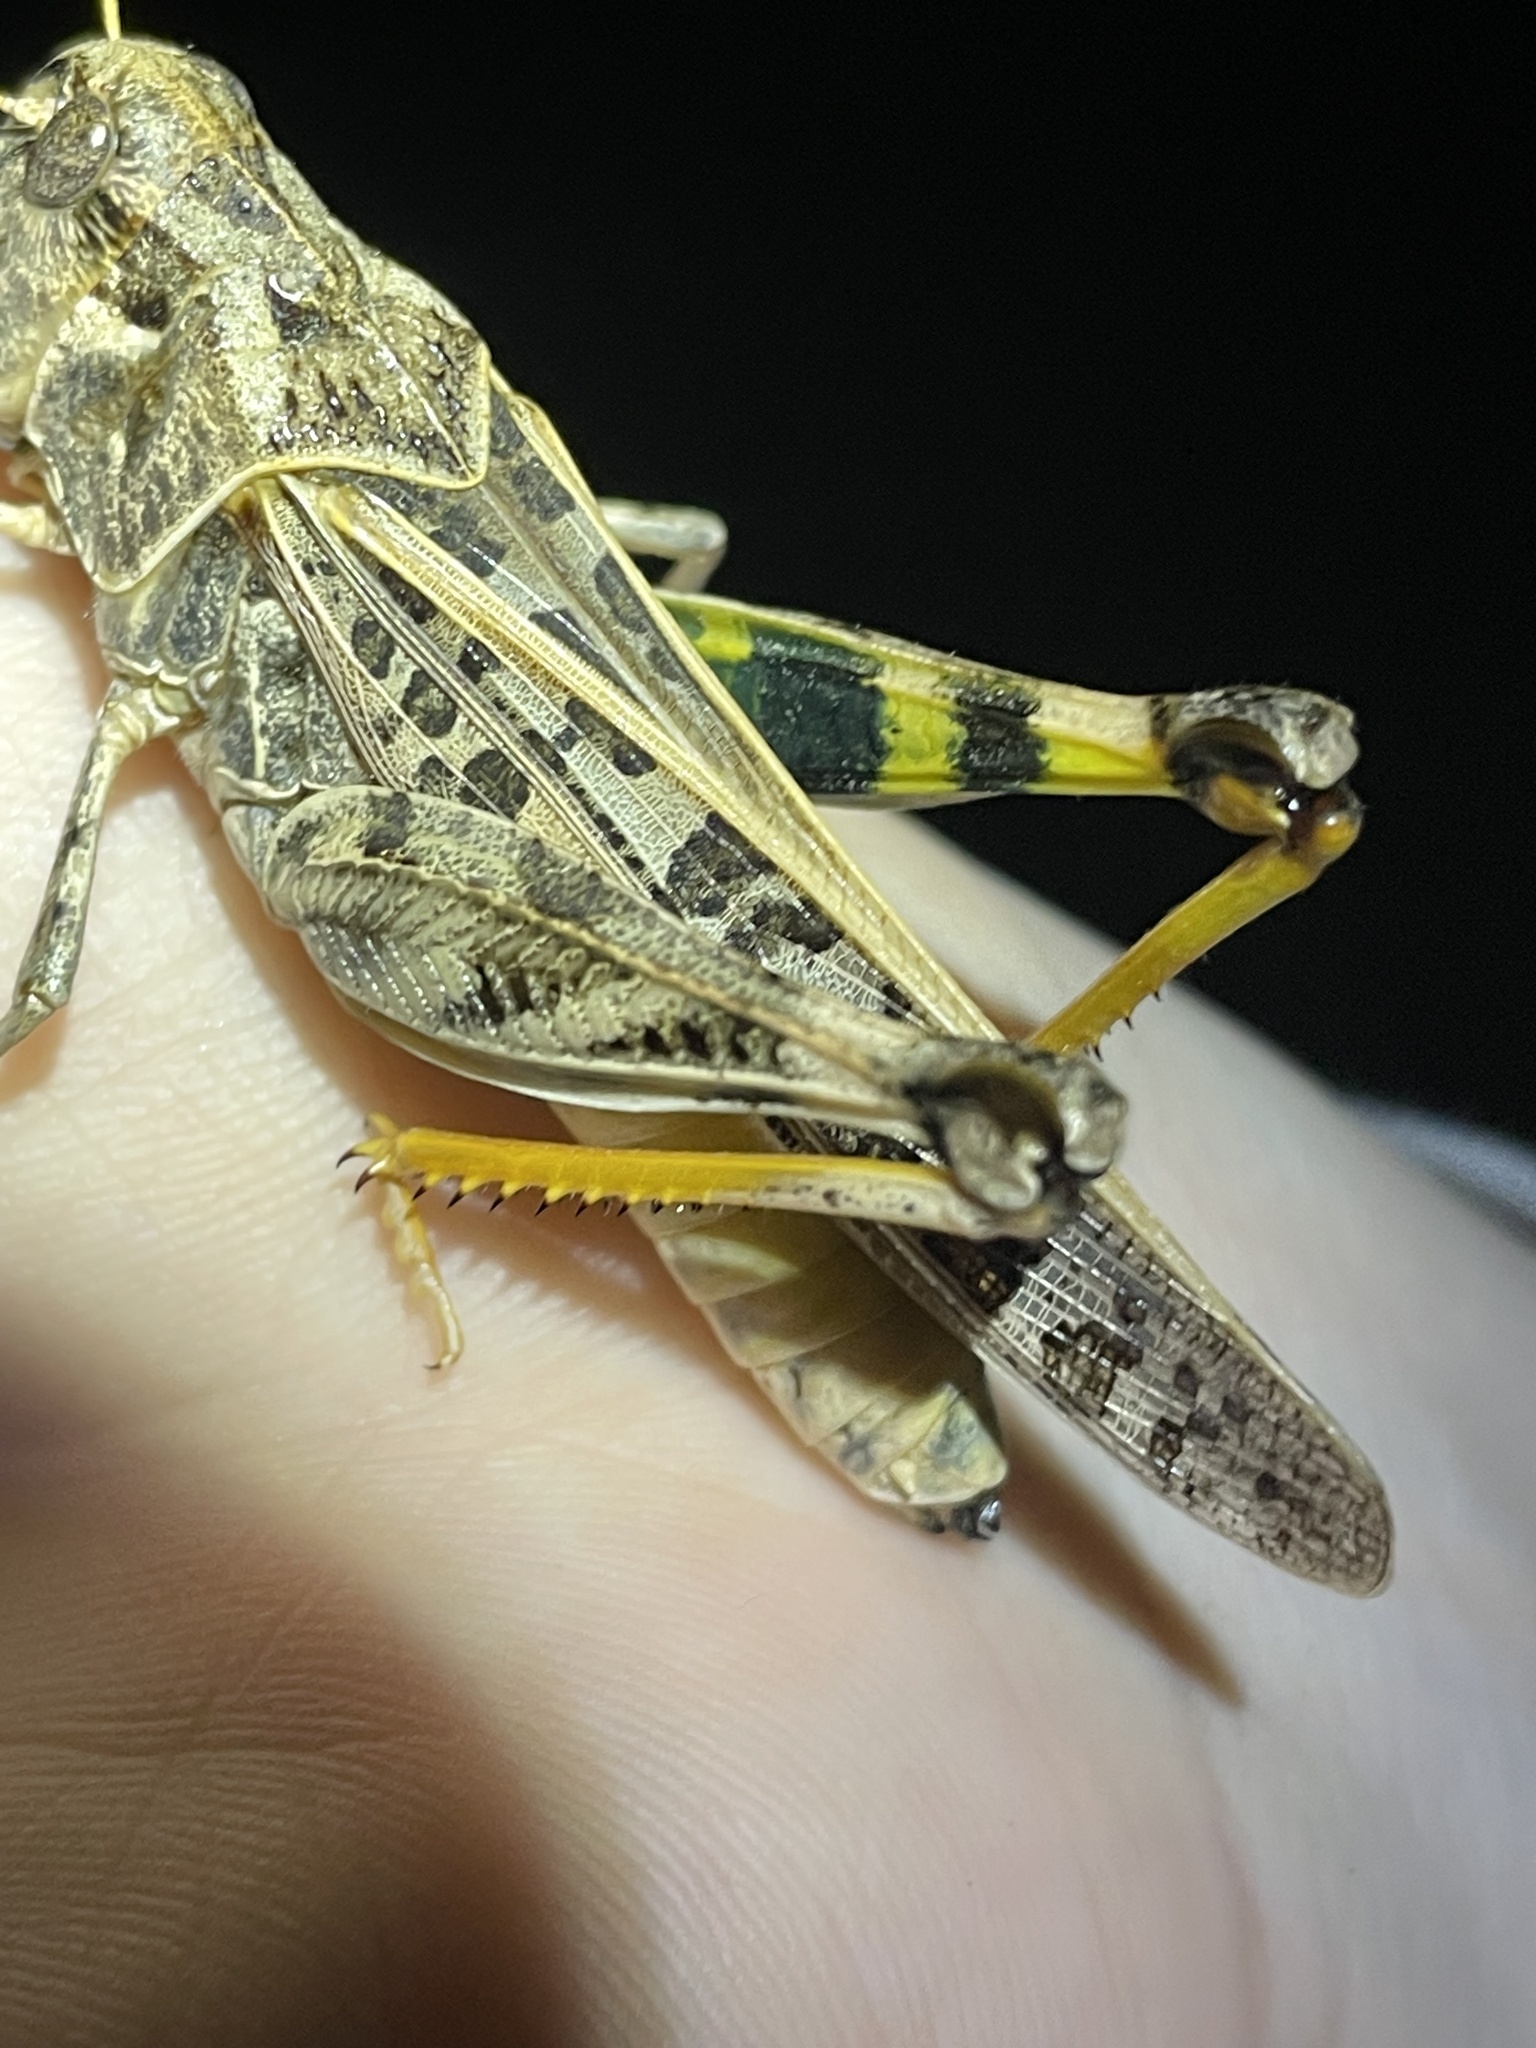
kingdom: Animalia
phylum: Arthropoda
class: Insecta
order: Orthoptera
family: Acrididae
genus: Hippiscus
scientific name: Hippiscus ocelote
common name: Wrinkled grasshopper
